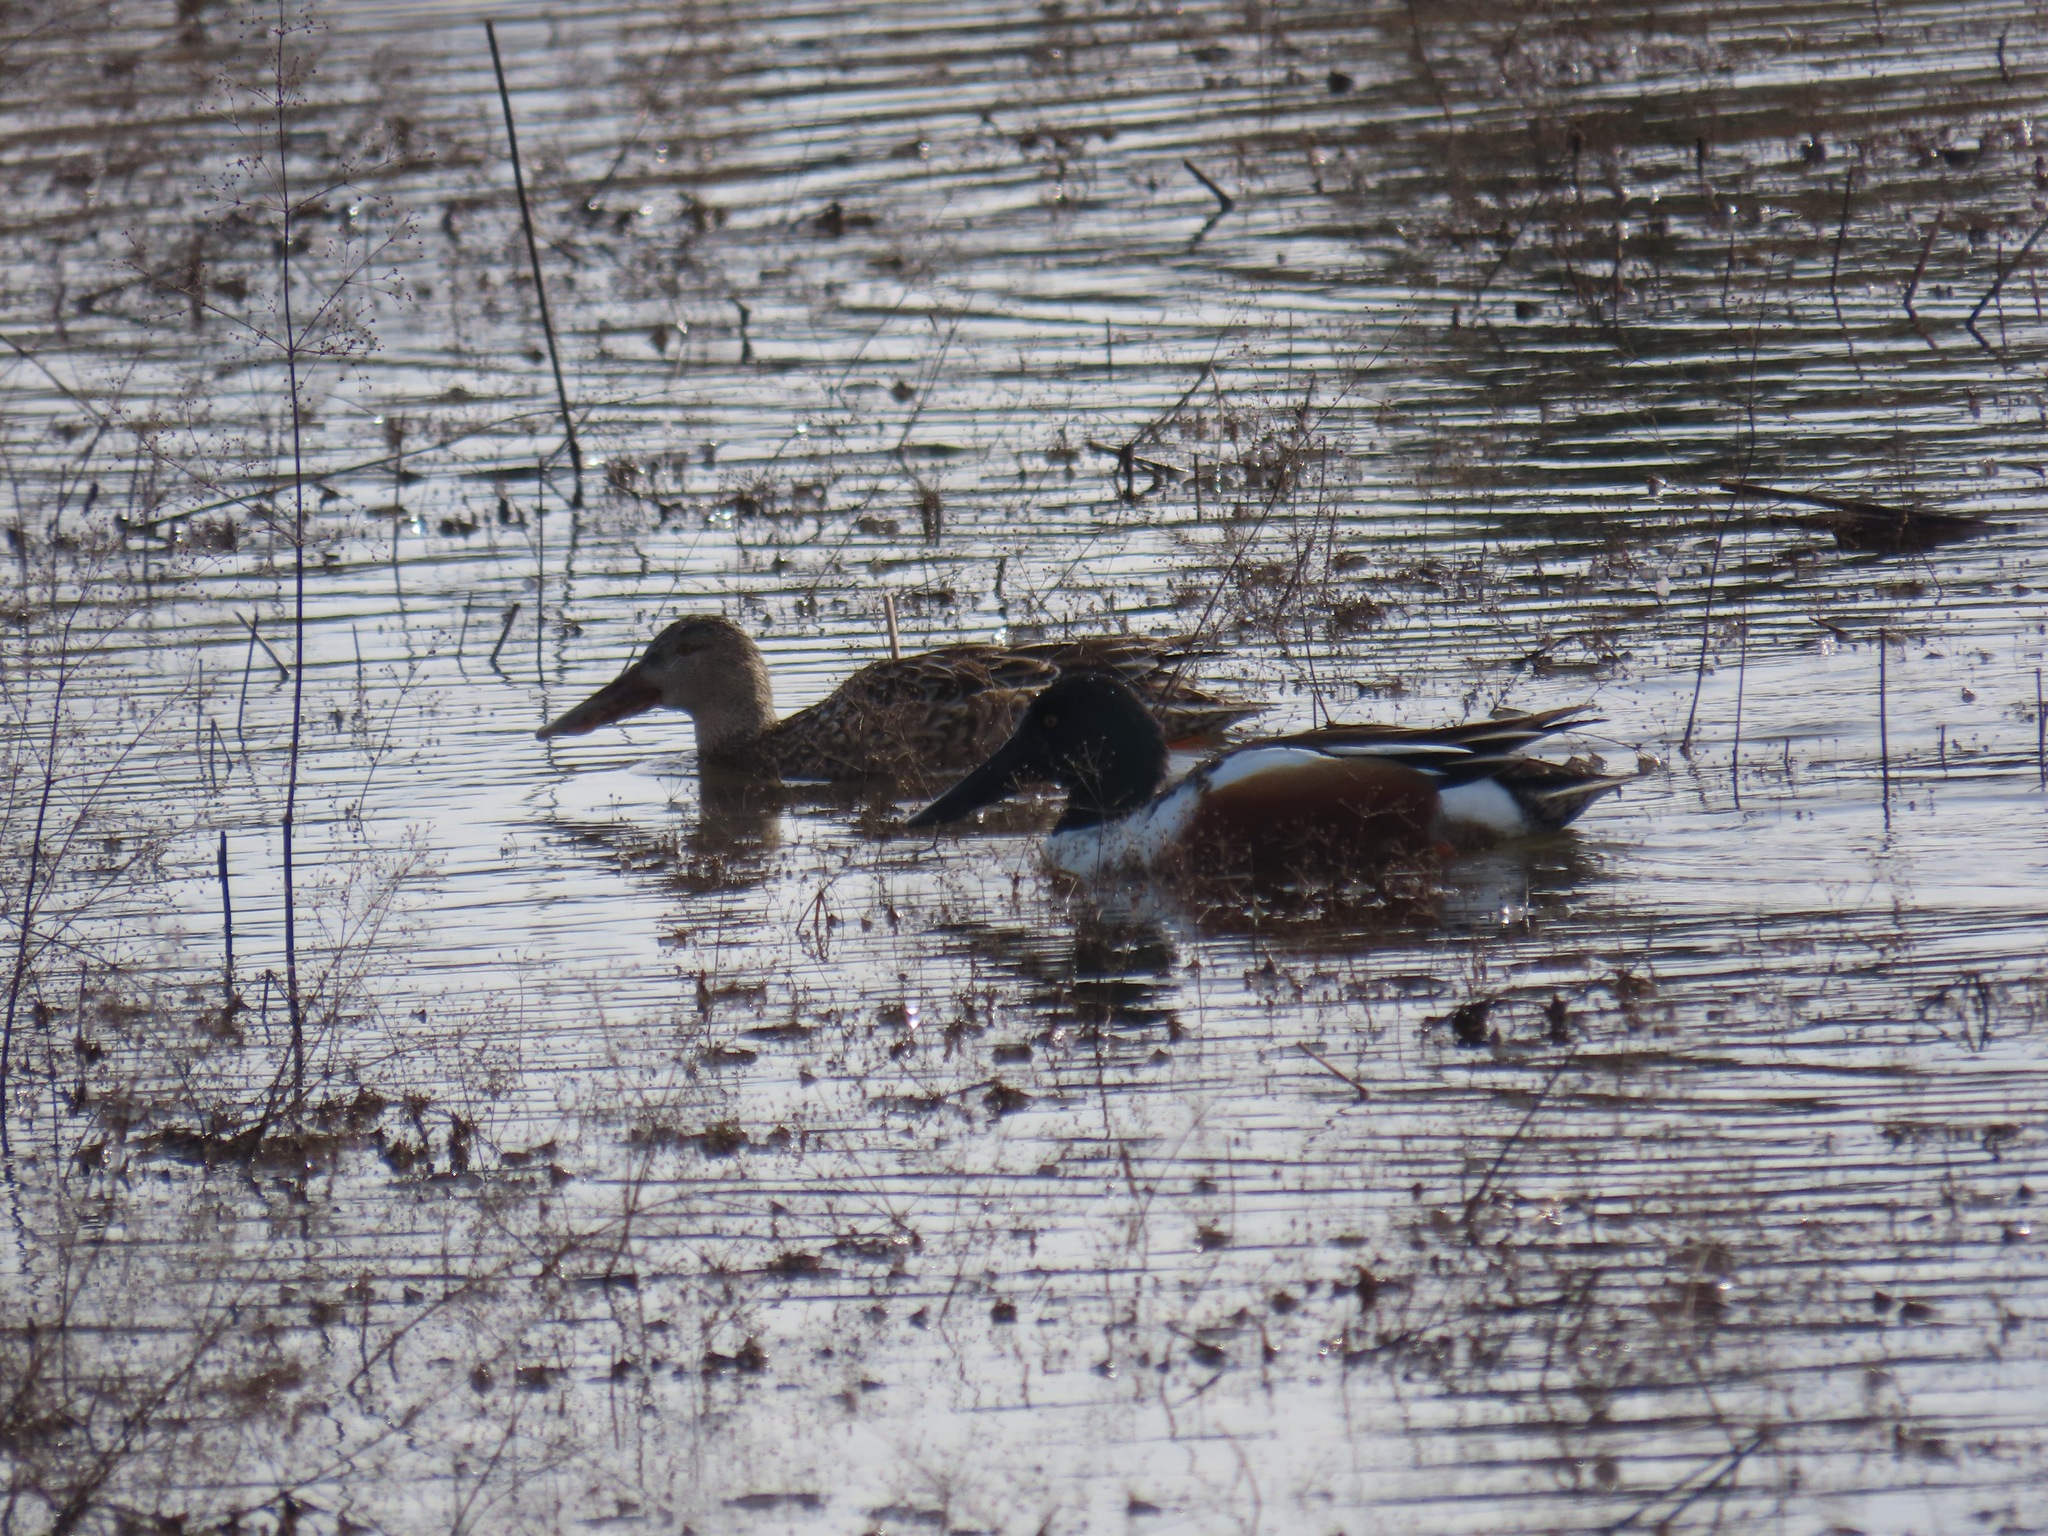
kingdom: Animalia
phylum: Chordata
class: Aves
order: Anseriformes
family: Anatidae
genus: Spatula
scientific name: Spatula clypeata
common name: Northern shoveler
